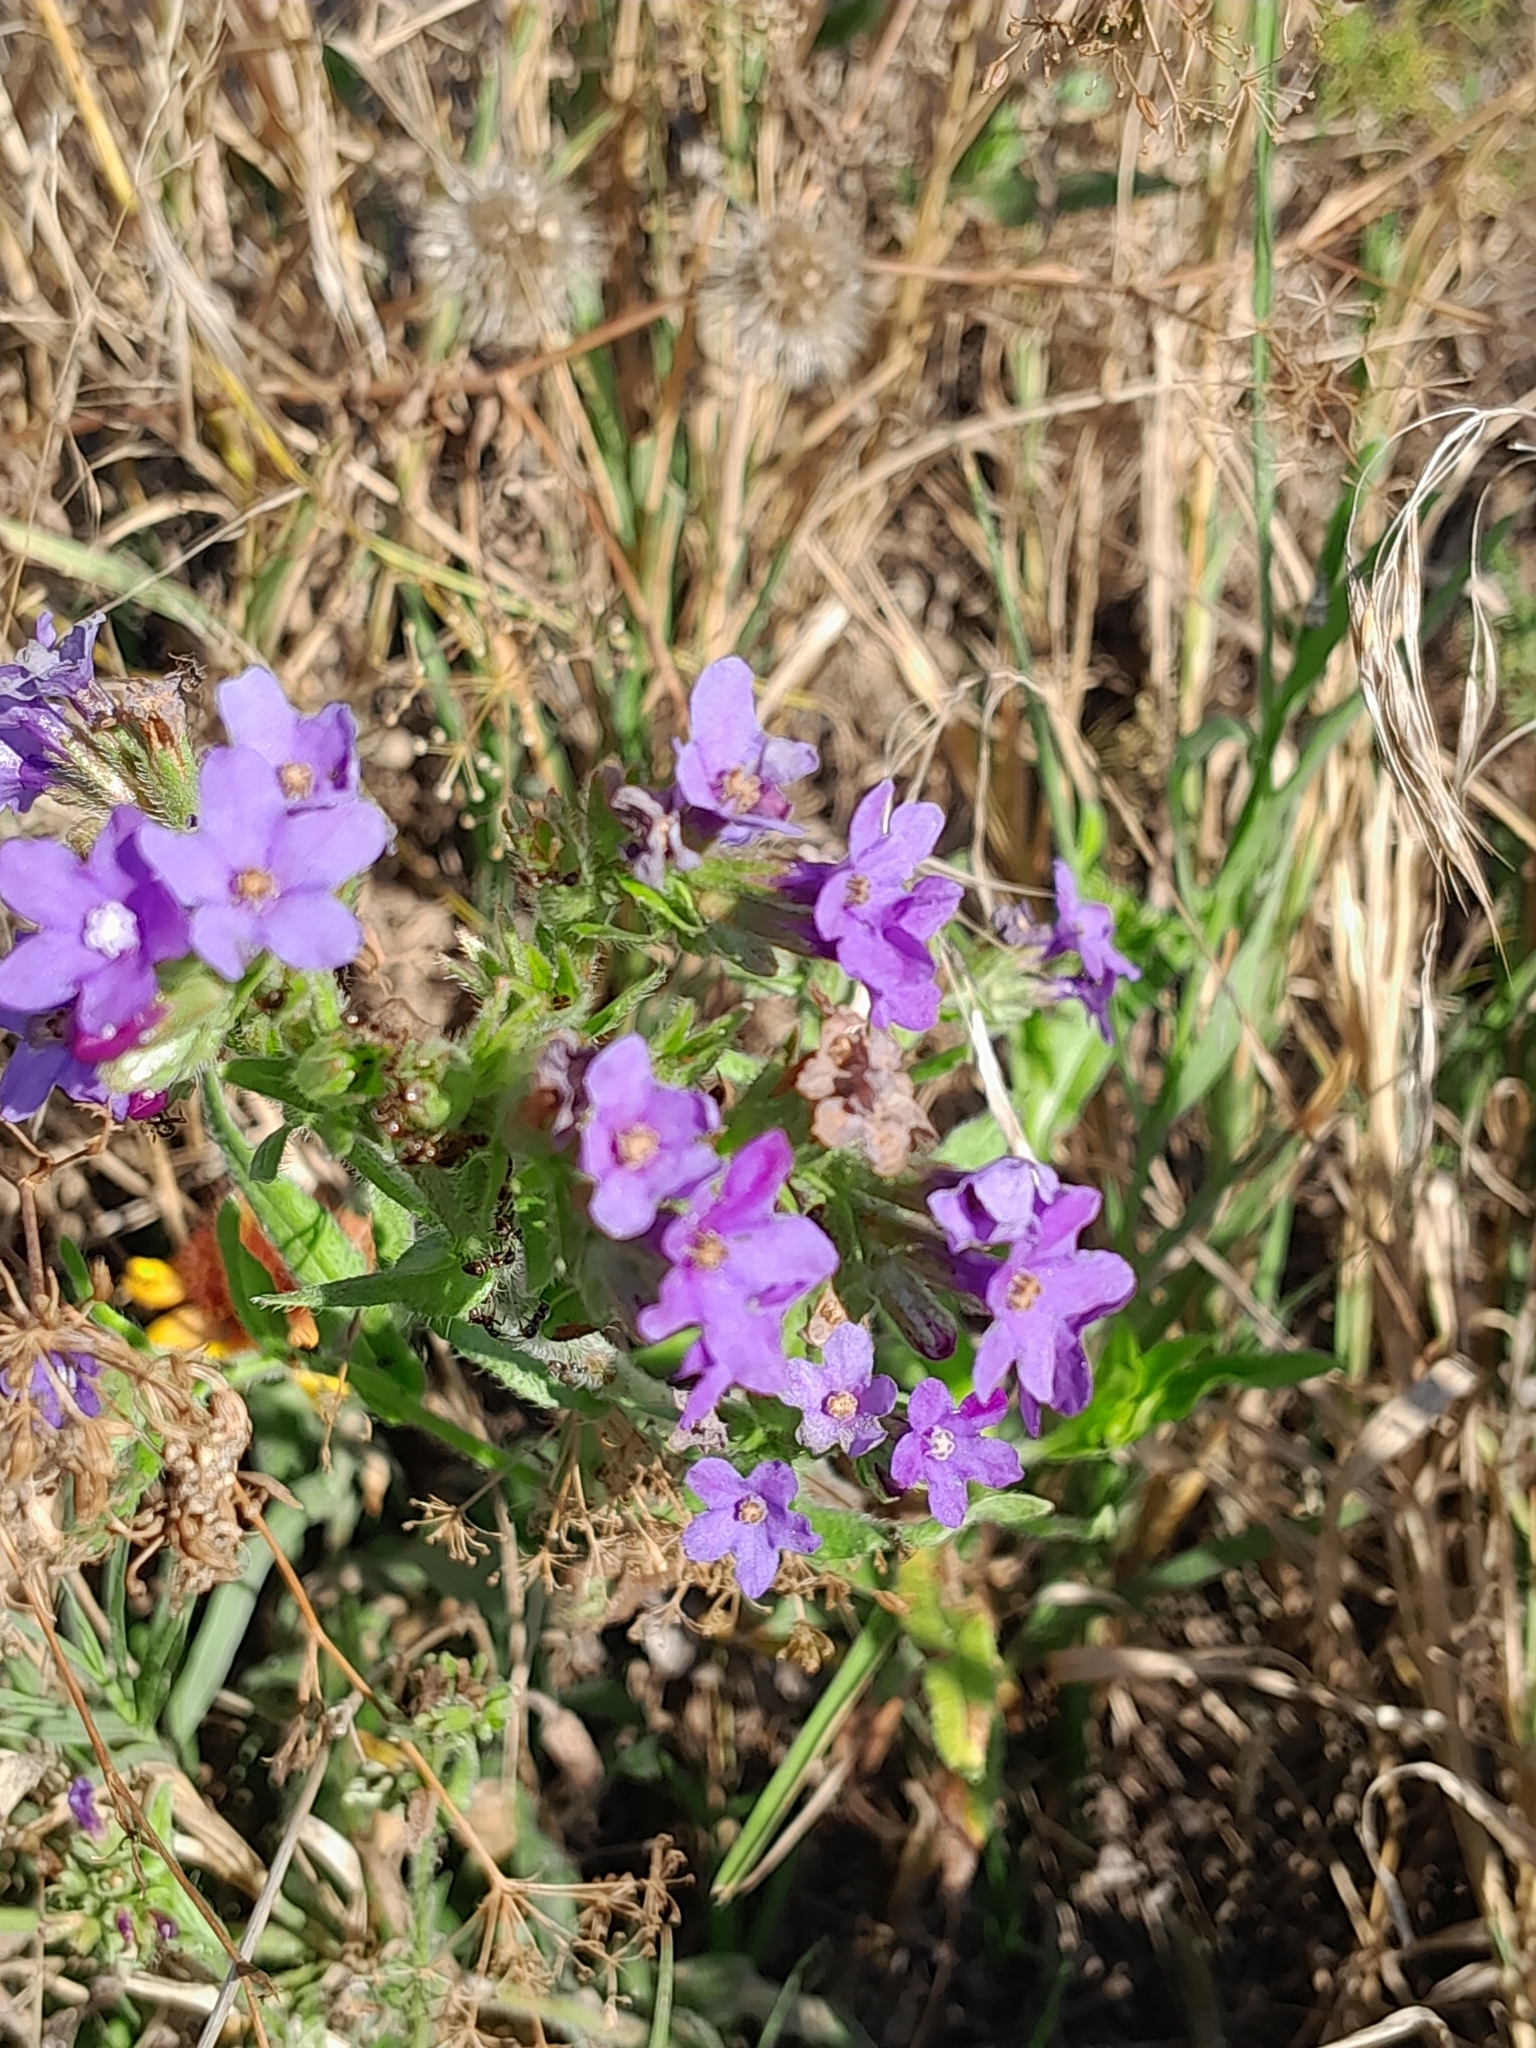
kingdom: Plantae
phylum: Tracheophyta
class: Magnoliopsida
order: Boraginales
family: Boraginaceae
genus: Anchusa
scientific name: Anchusa officinalis
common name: Alkanet
